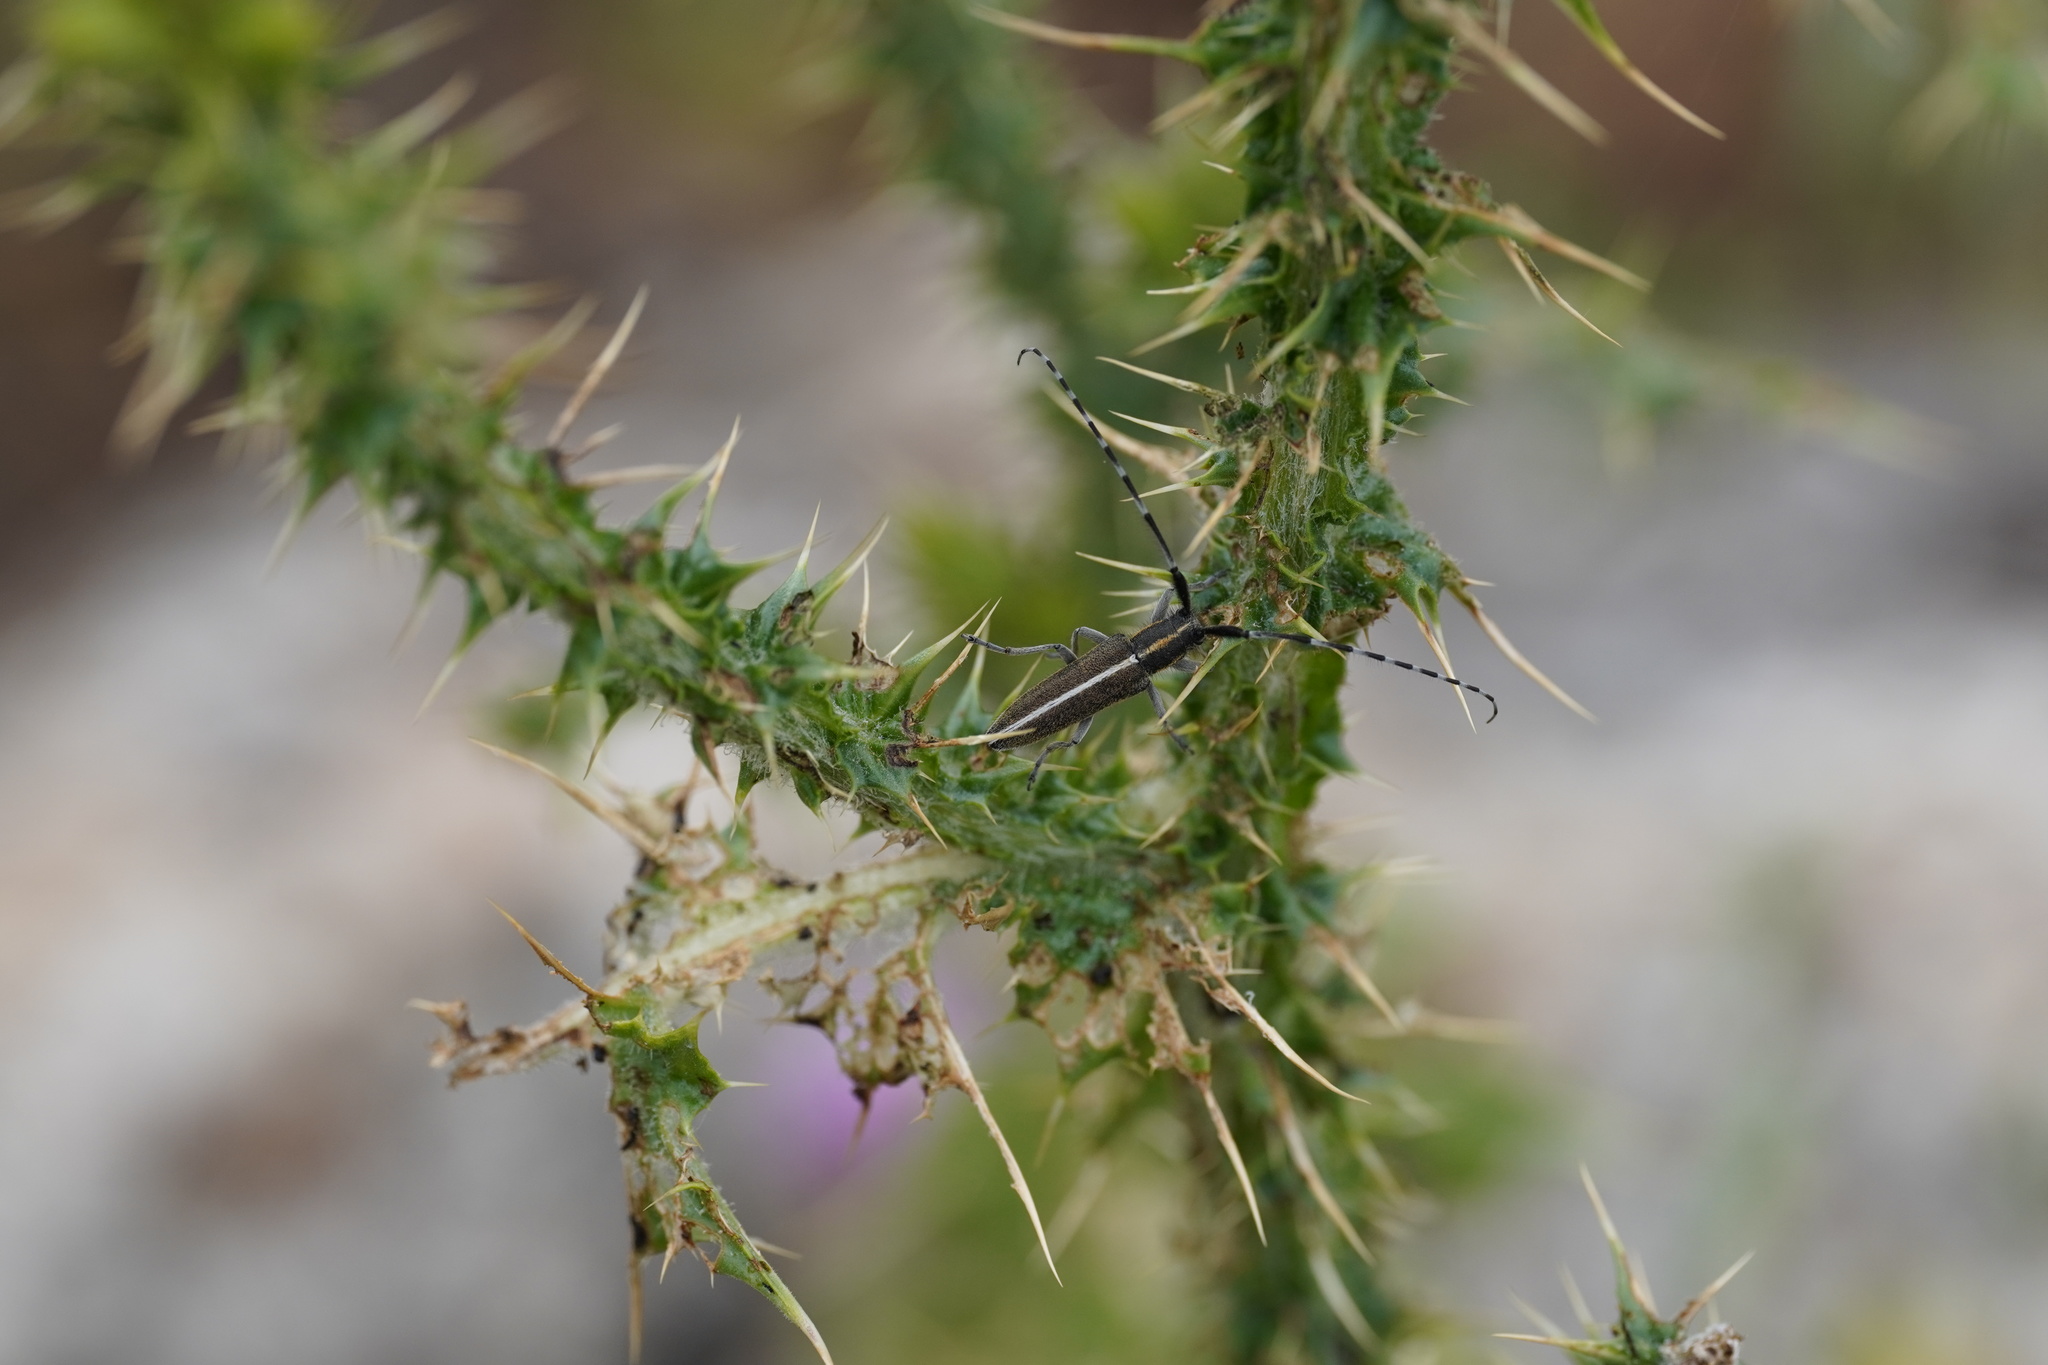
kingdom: Animalia
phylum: Arthropoda
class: Insecta
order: Coleoptera
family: Cerambycidae
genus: Agapanthia
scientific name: Agapanthia suturalis
